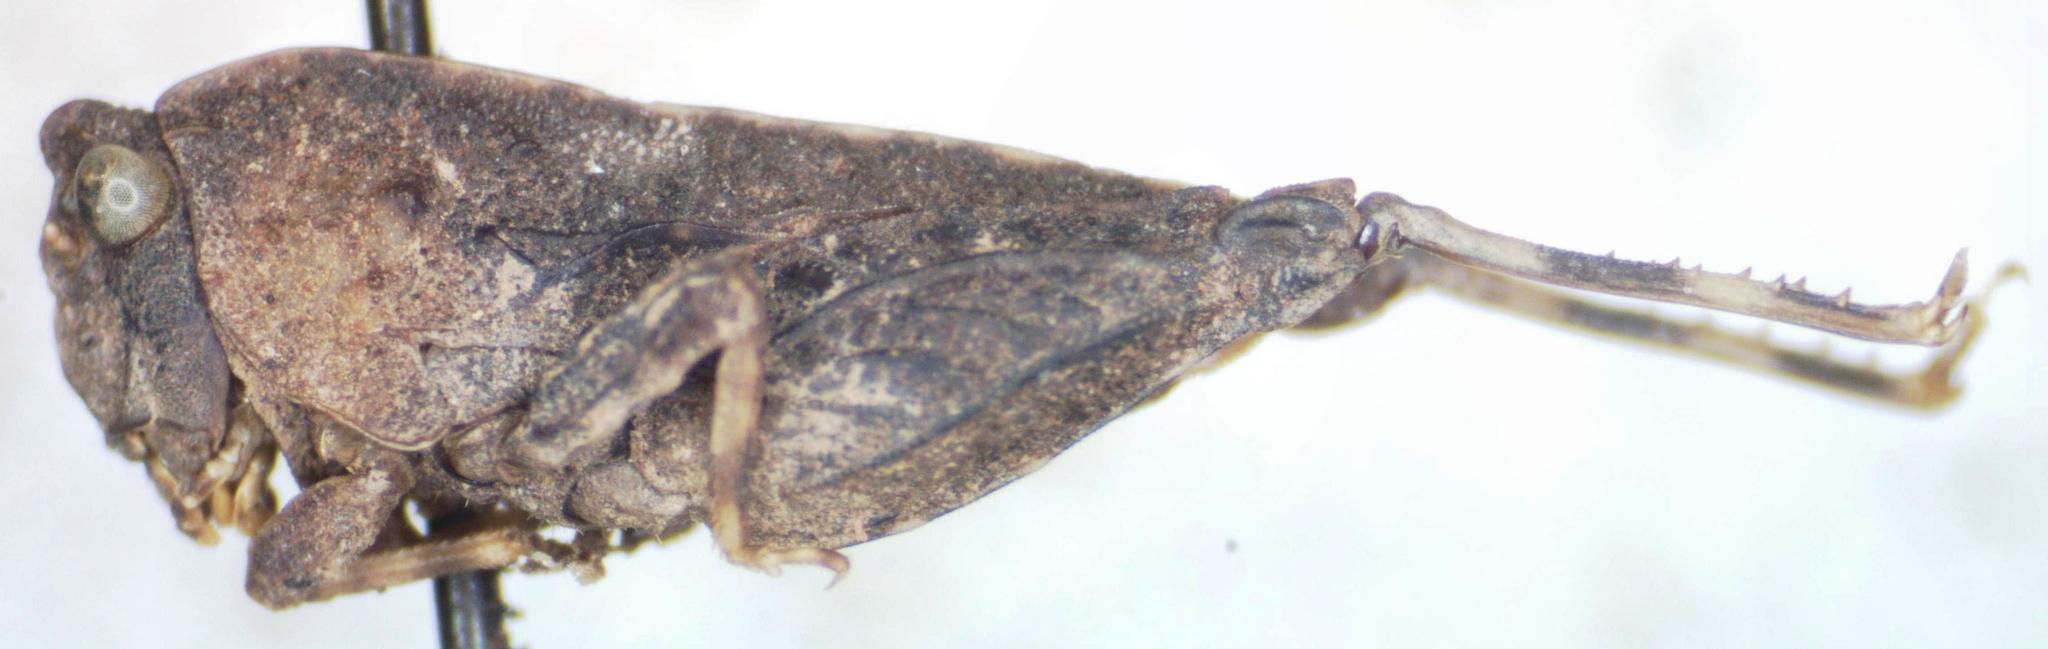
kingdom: Animalia
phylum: Arthropoda
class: Insecta
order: Orthoptera
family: Tetrigidae
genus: Metrodora
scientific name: Metrodora sinuata
